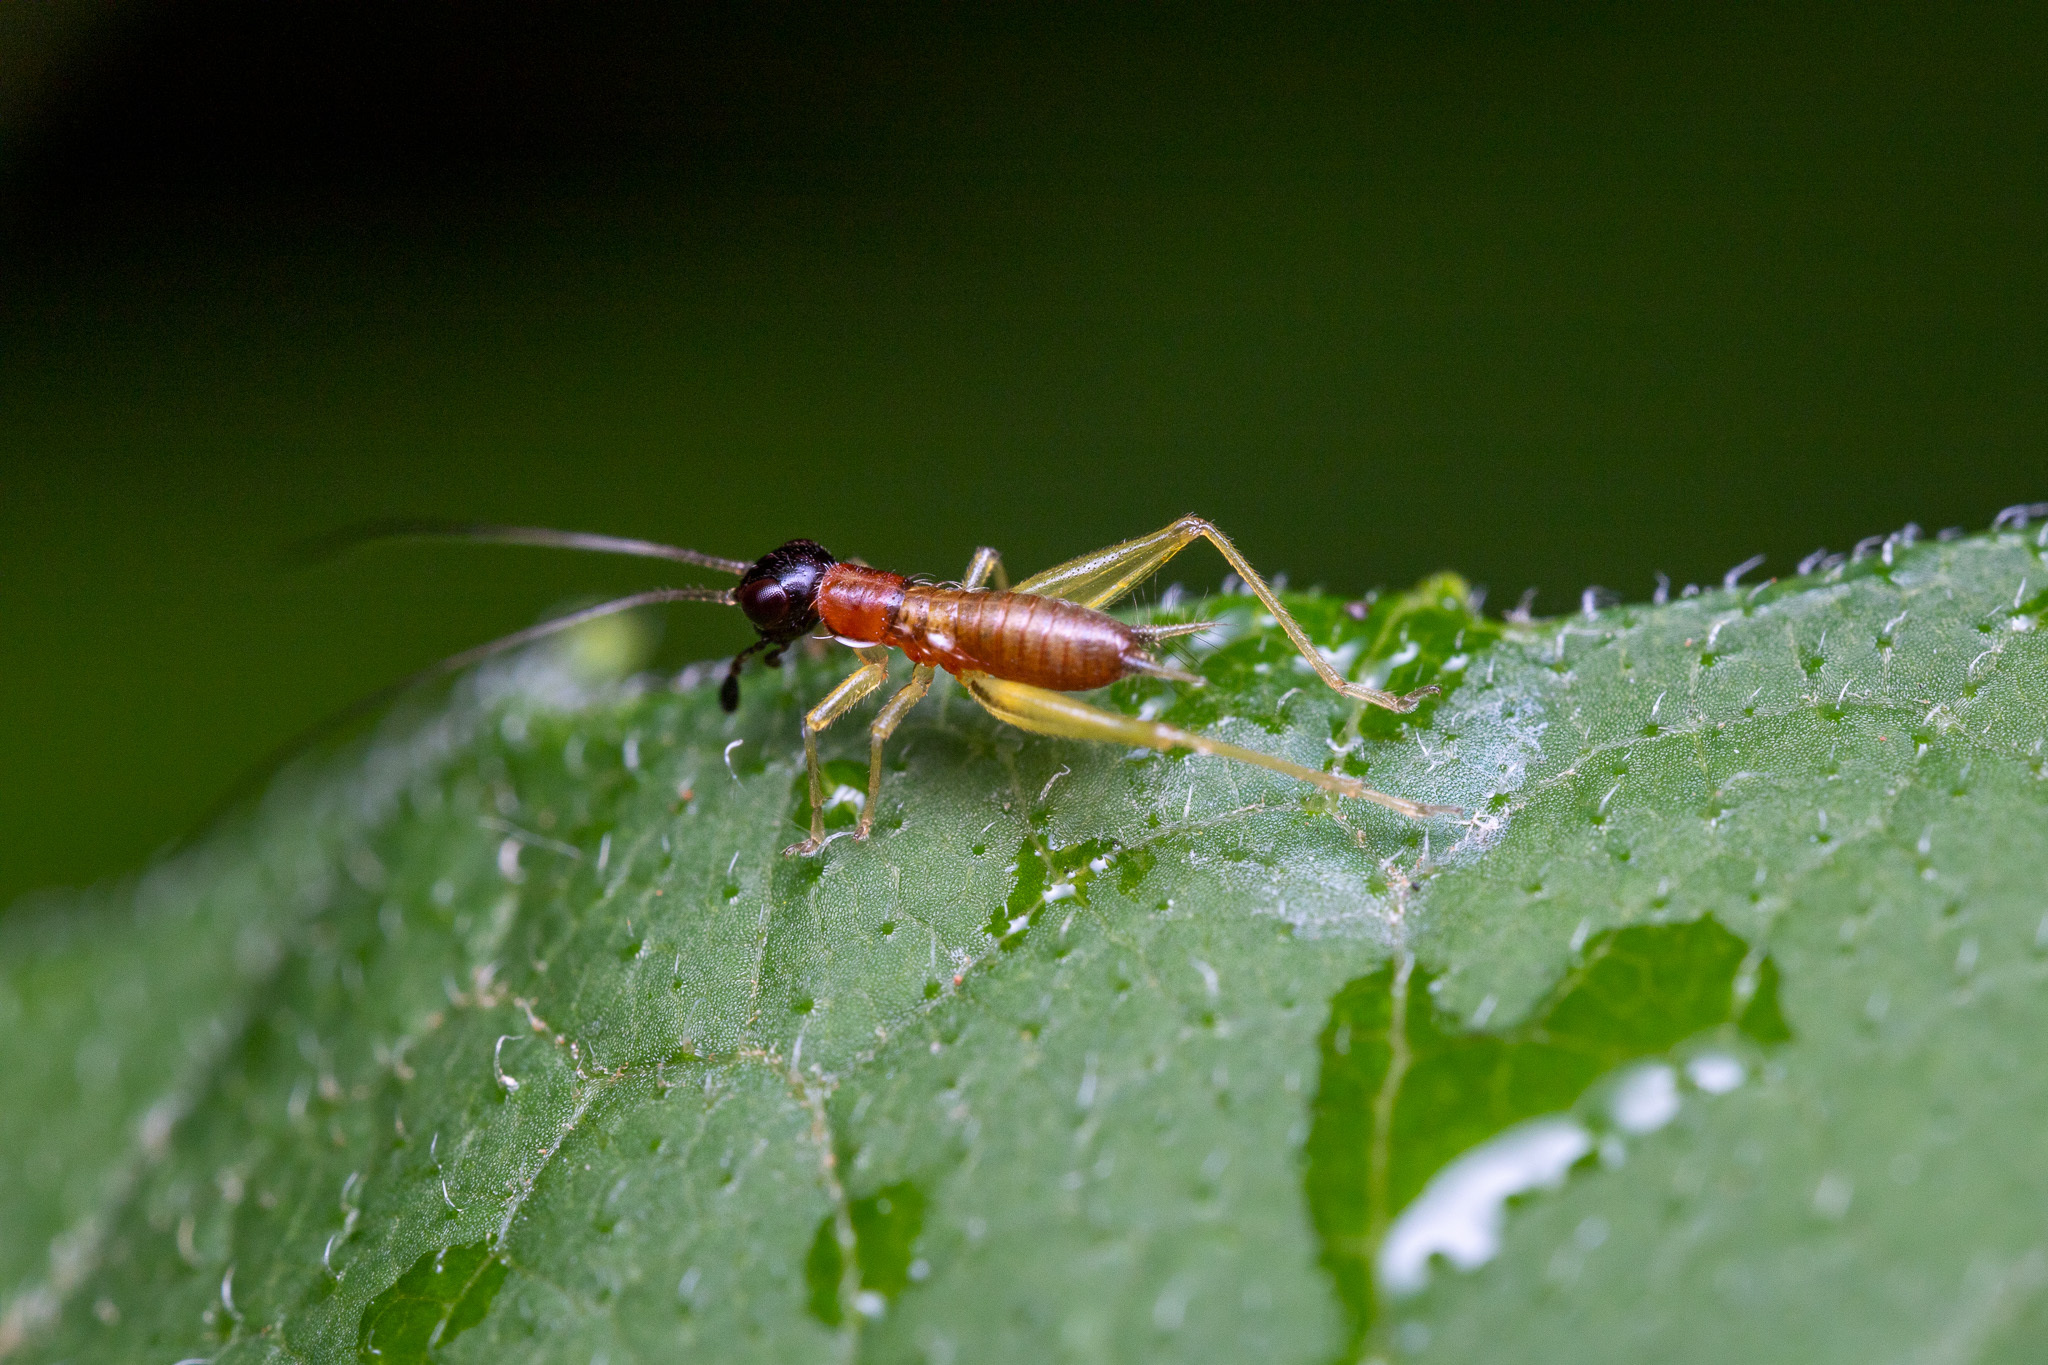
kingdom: Animalia
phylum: Arthropoda
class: Insecta
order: Orthoptera
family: Trigonidiidae
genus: Phyllopalpus
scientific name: Phyllopalpus pulchellus
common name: Handsome trig
